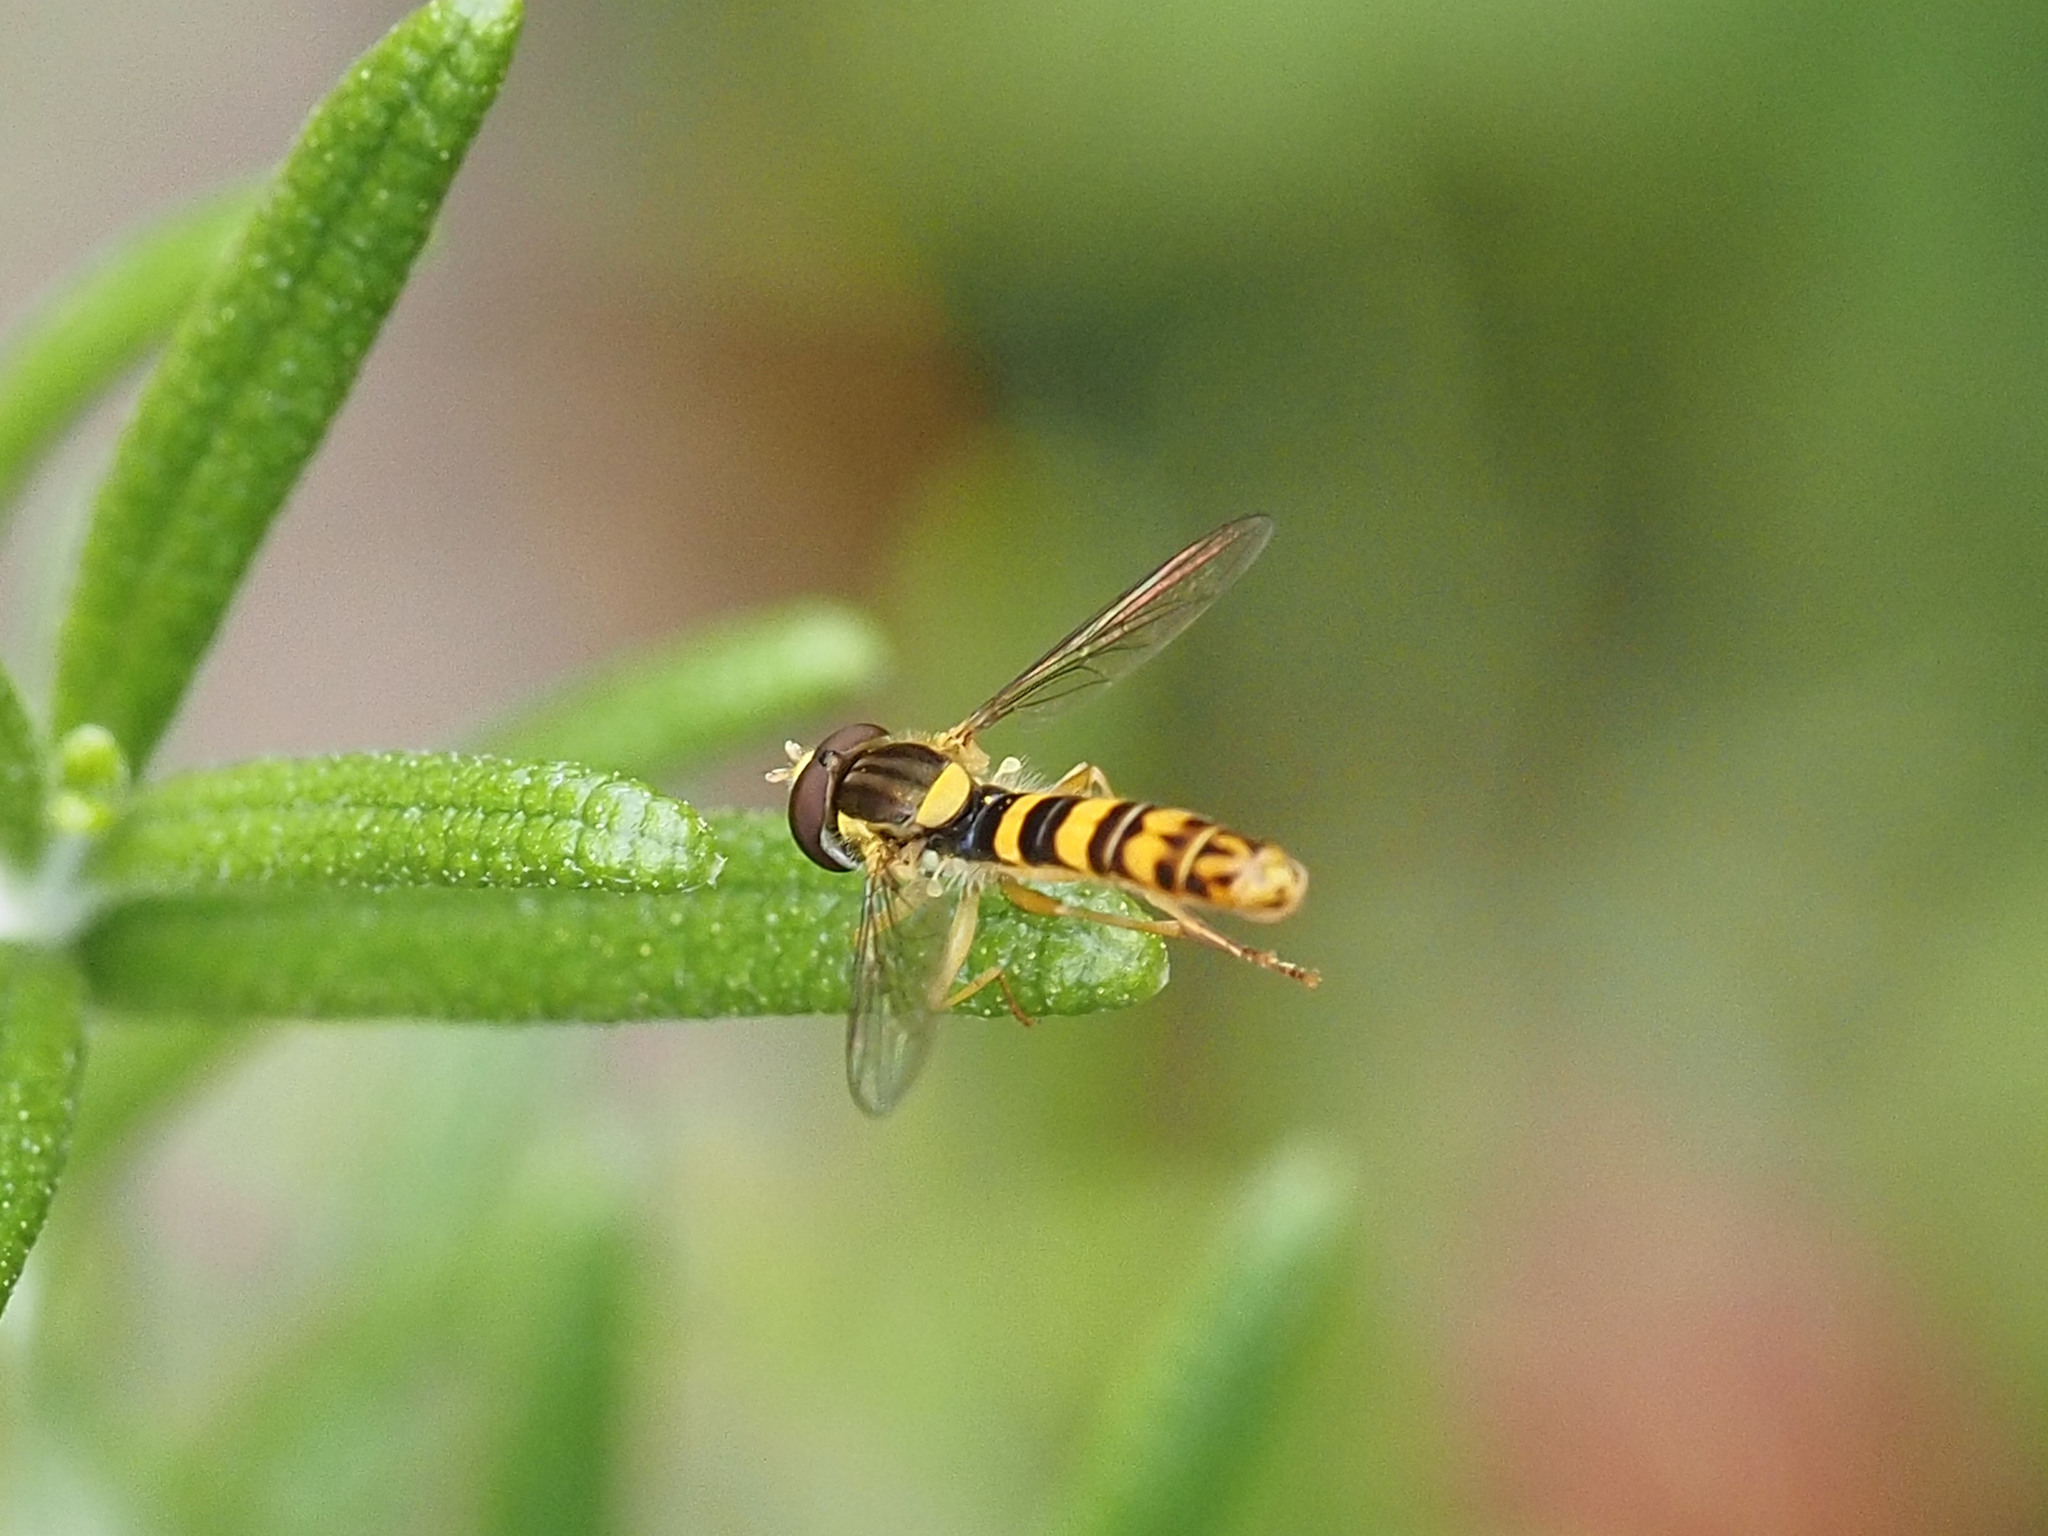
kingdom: Animalia
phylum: Arthropoda
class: Insecta
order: Diptera
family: Syrphidae
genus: Sphaerophoria
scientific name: Sphaerophoria scripta
